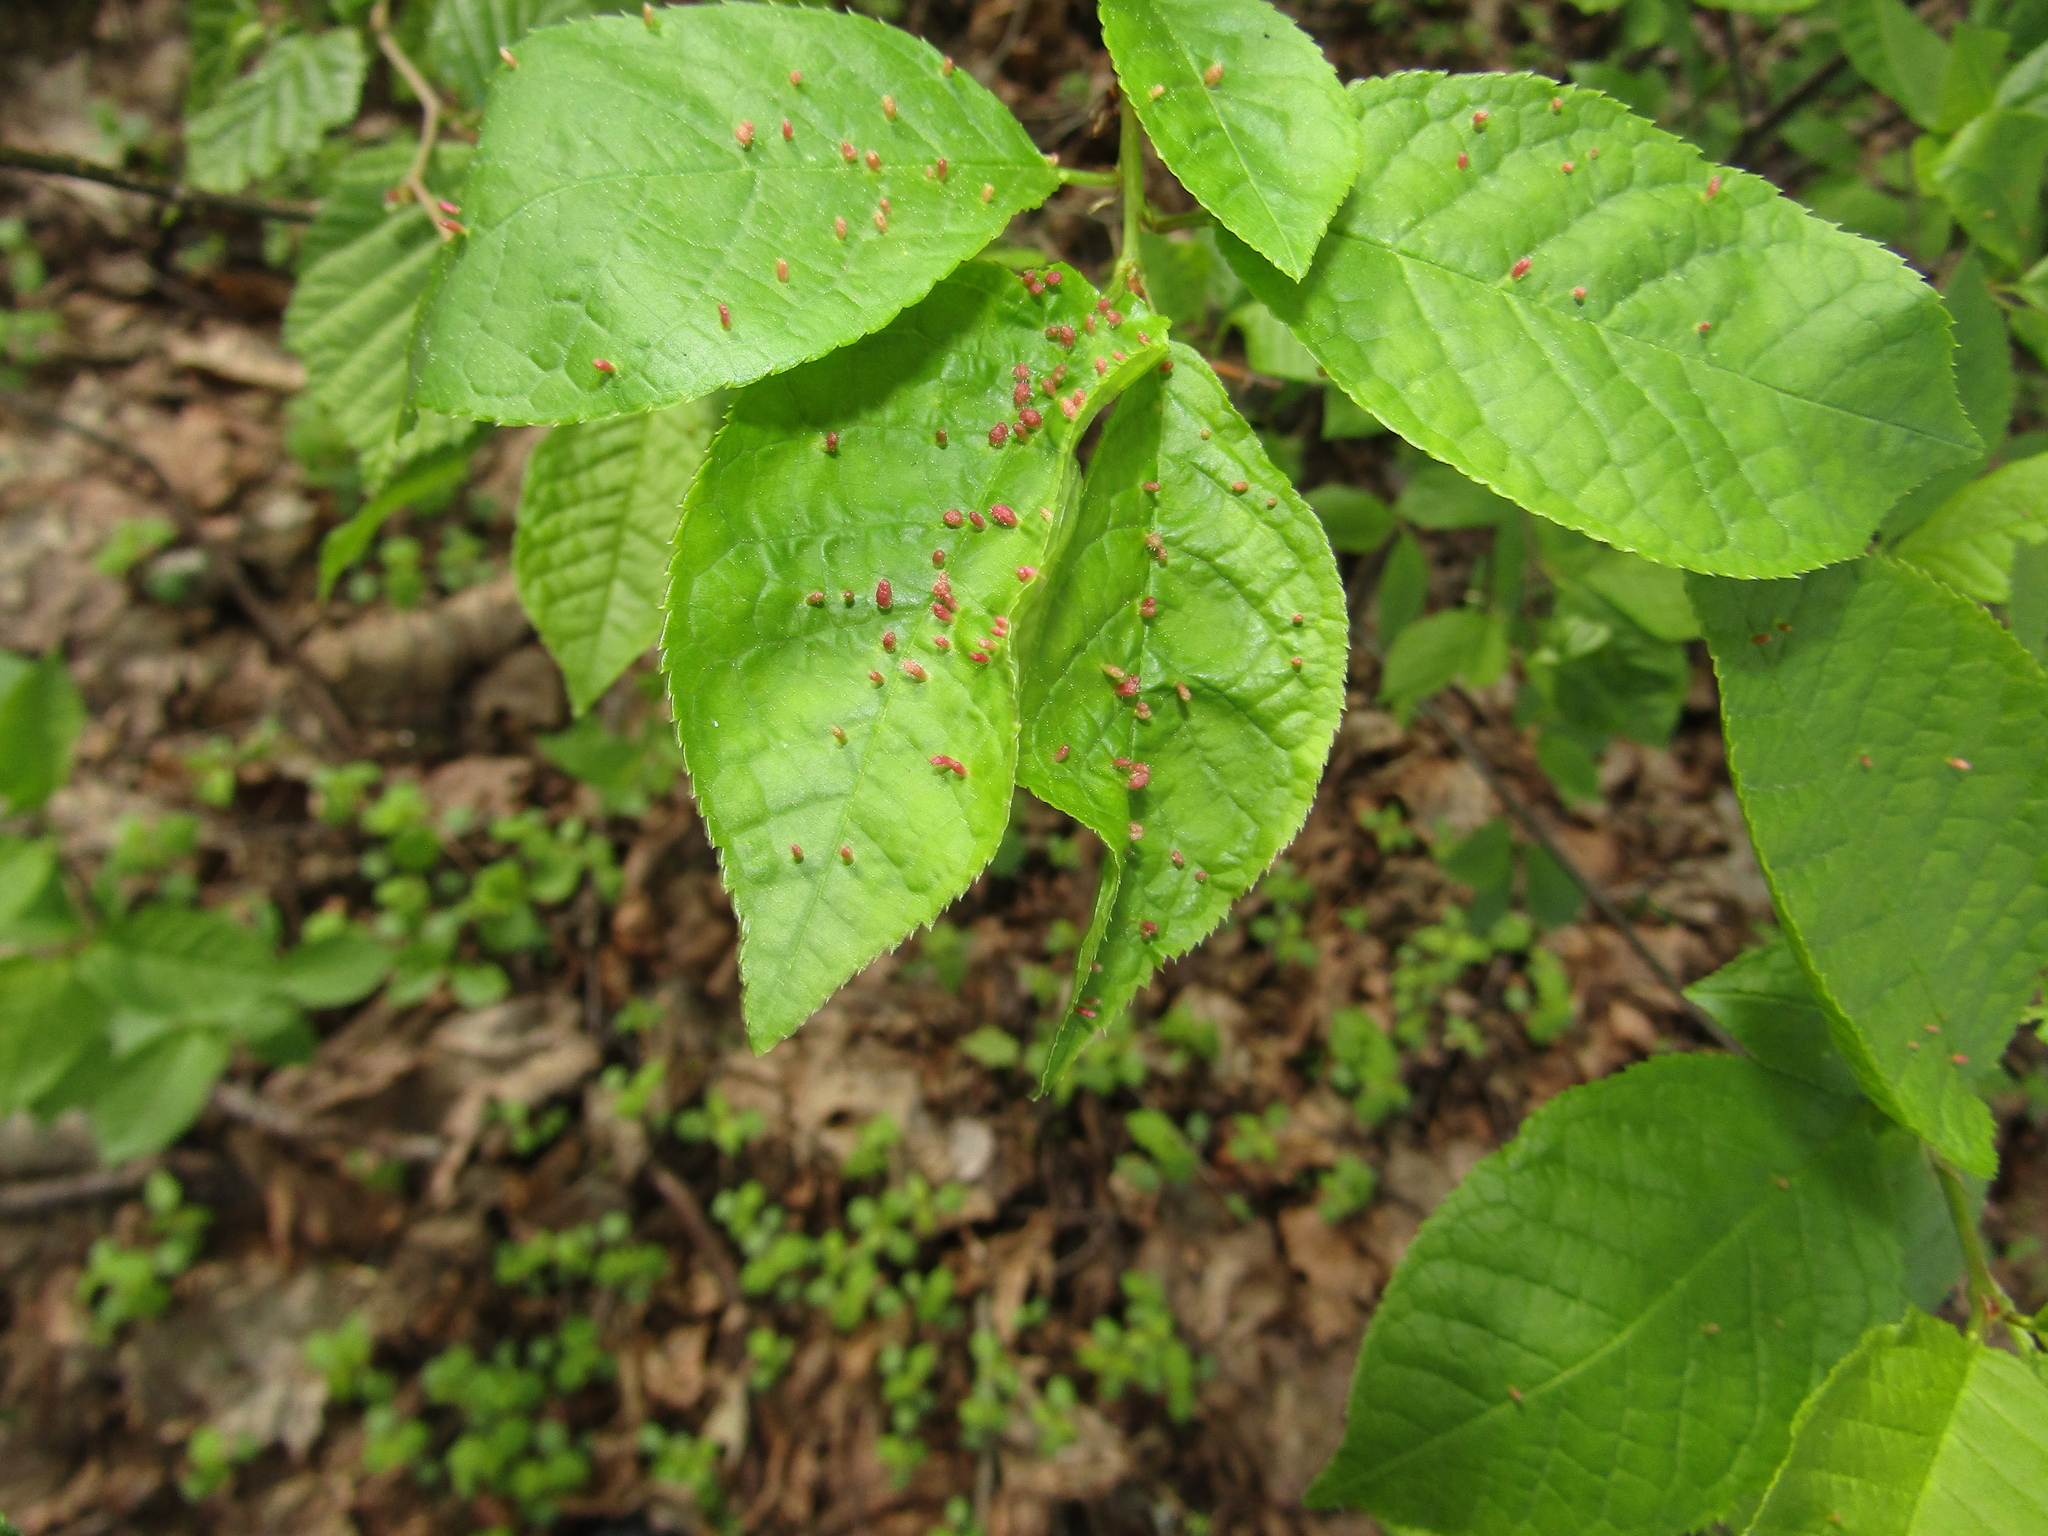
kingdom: Plantae
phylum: Tracheophyta
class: Magnoliopsida
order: Rosales
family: Rosaceae
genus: Prunus
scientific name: Prunus padus
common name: Bird cherry
